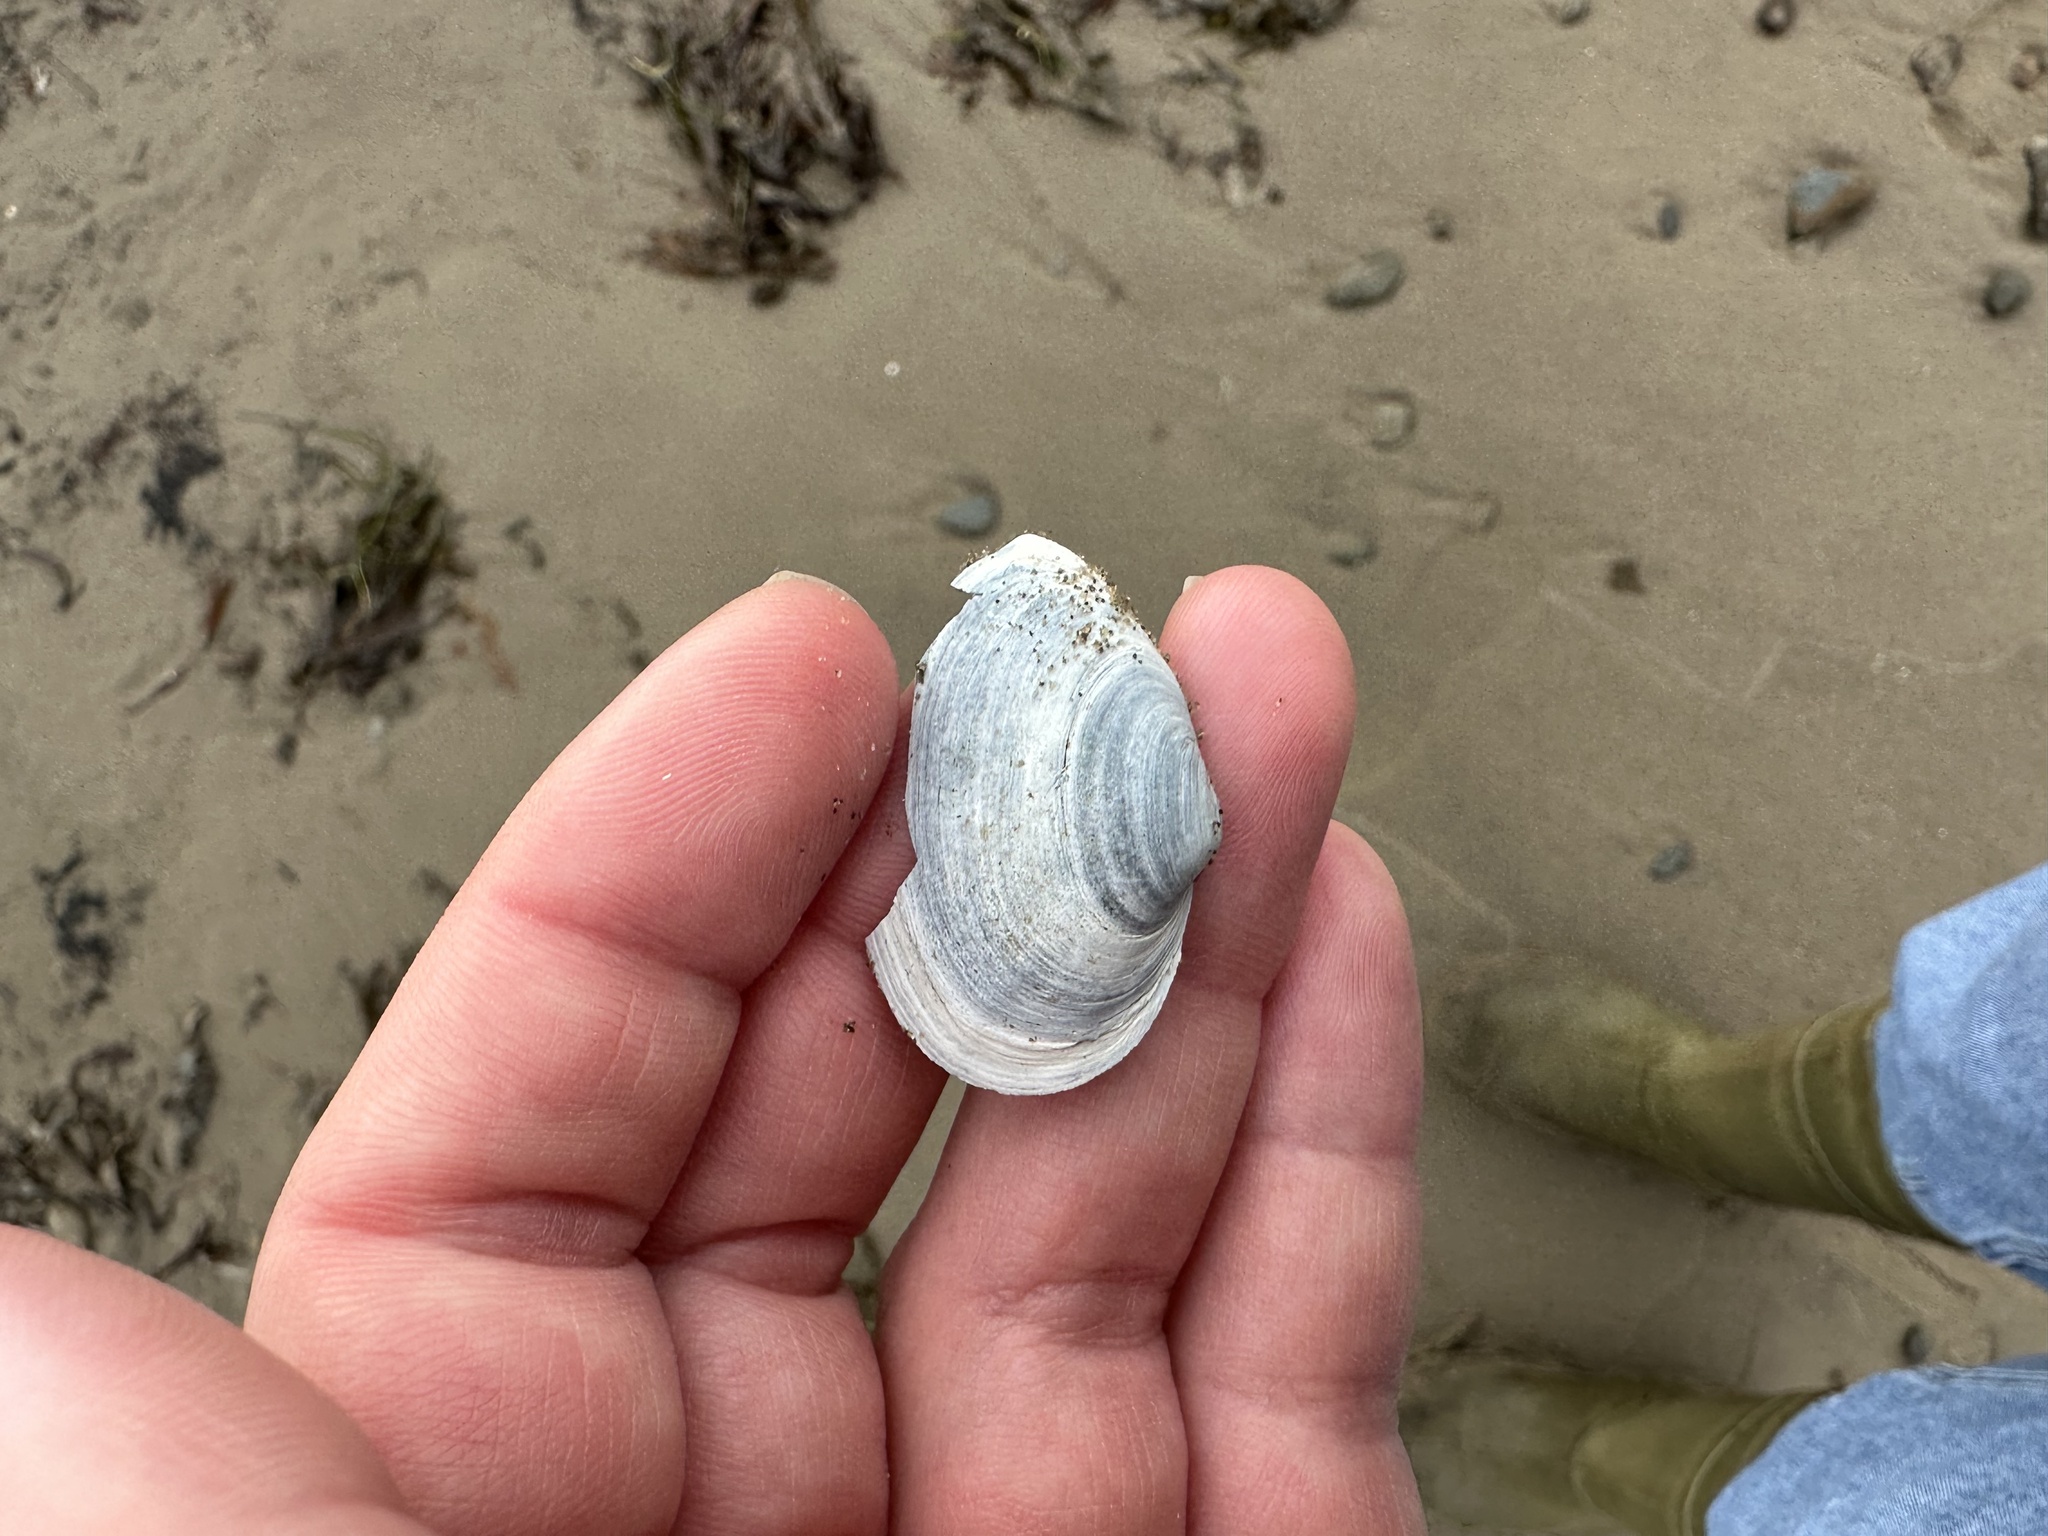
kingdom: Animalia
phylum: Mollusca
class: Bivalvia
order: Myida
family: Myidae
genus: Mya
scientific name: Mya arenaria
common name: Soft-shelled clam
